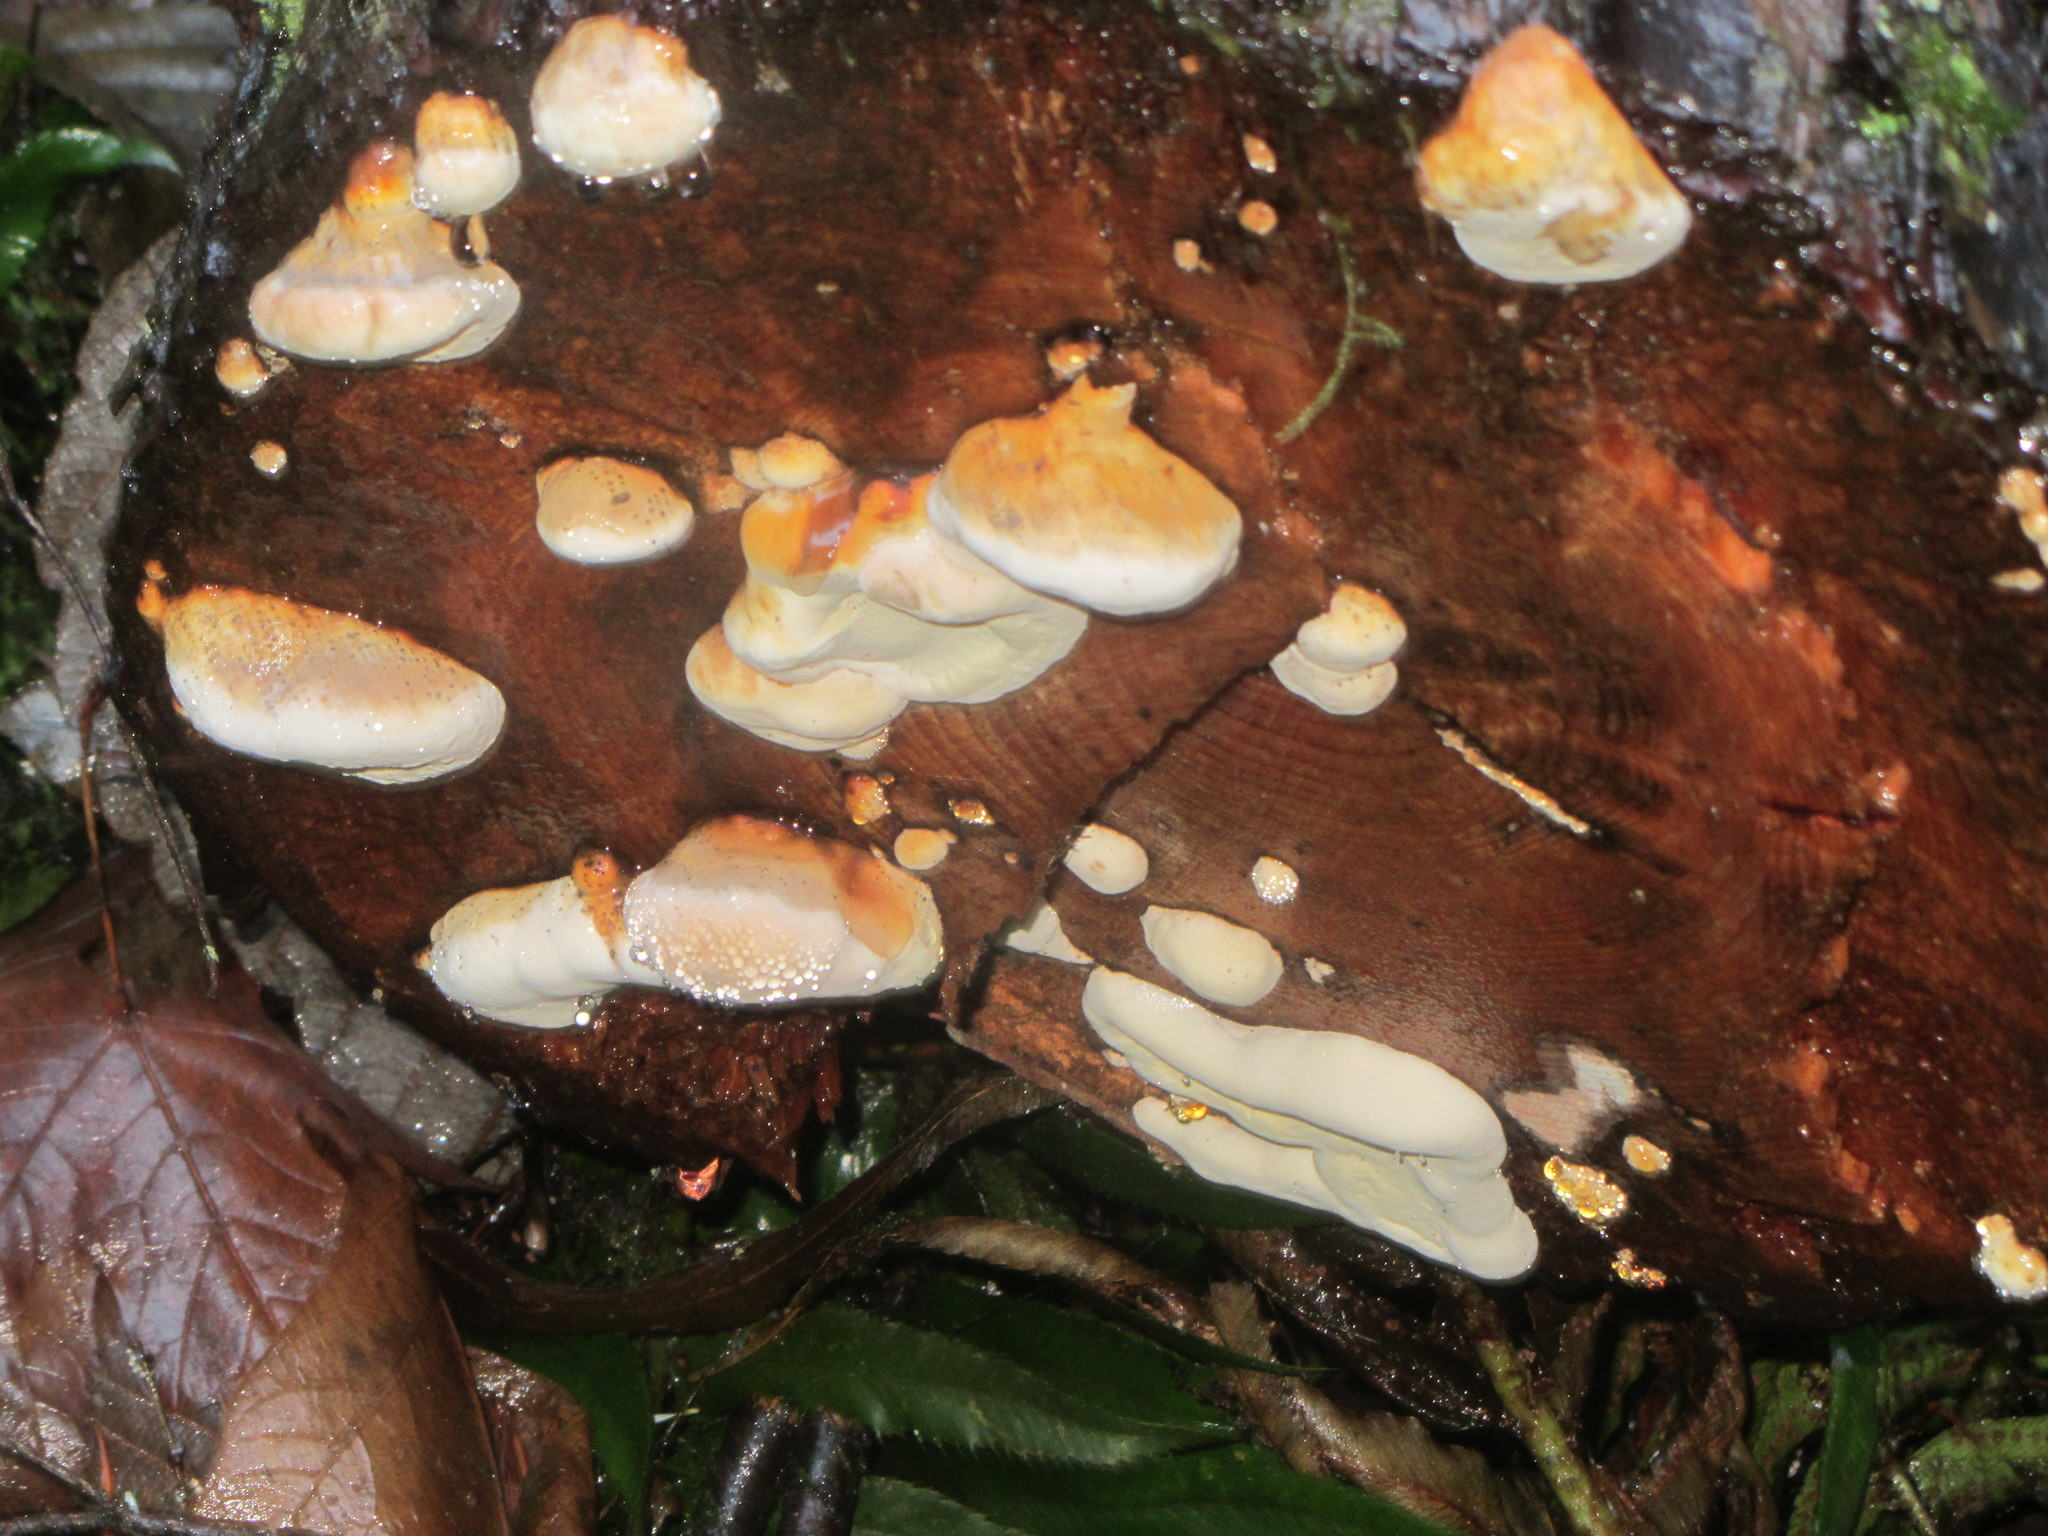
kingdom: Fungi
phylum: Basidiomycota
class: Agaricomycetes
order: Polyporales
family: Fomitopsidaceae
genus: Fomitopsis
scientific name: Fomitopsis mounceae
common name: Northern red belt
